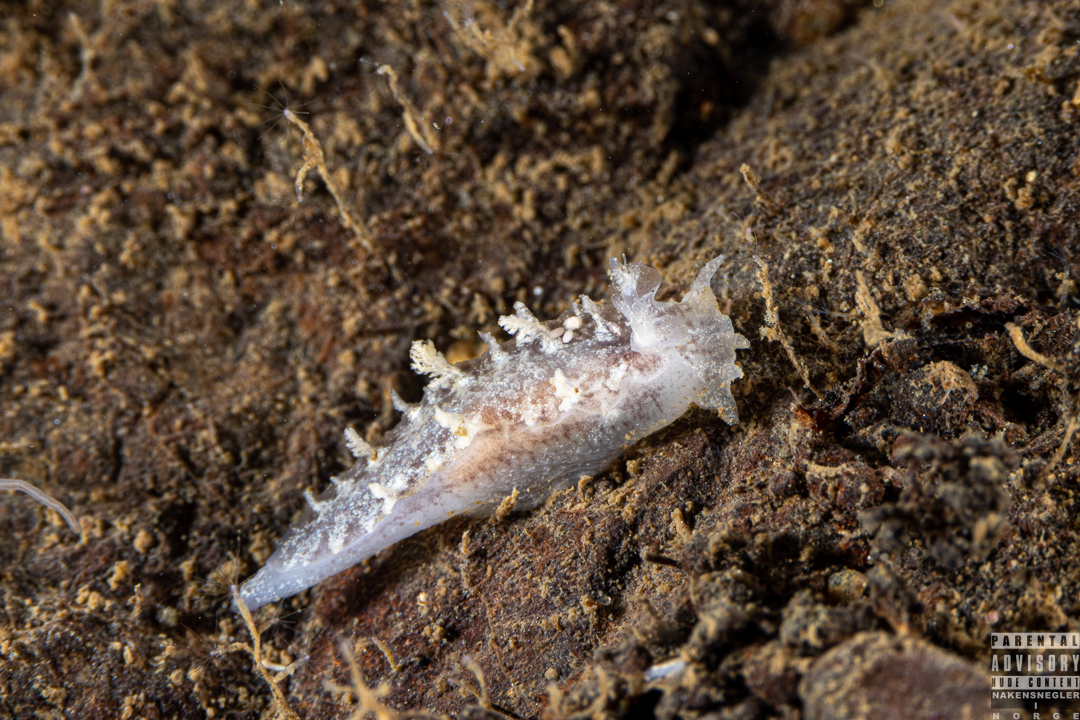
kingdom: Animalia
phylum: Mollusca
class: Gastropoda
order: Nudibranchia
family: Tritoniidae
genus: Duvaucelia
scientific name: Duvaucelia plebeia
